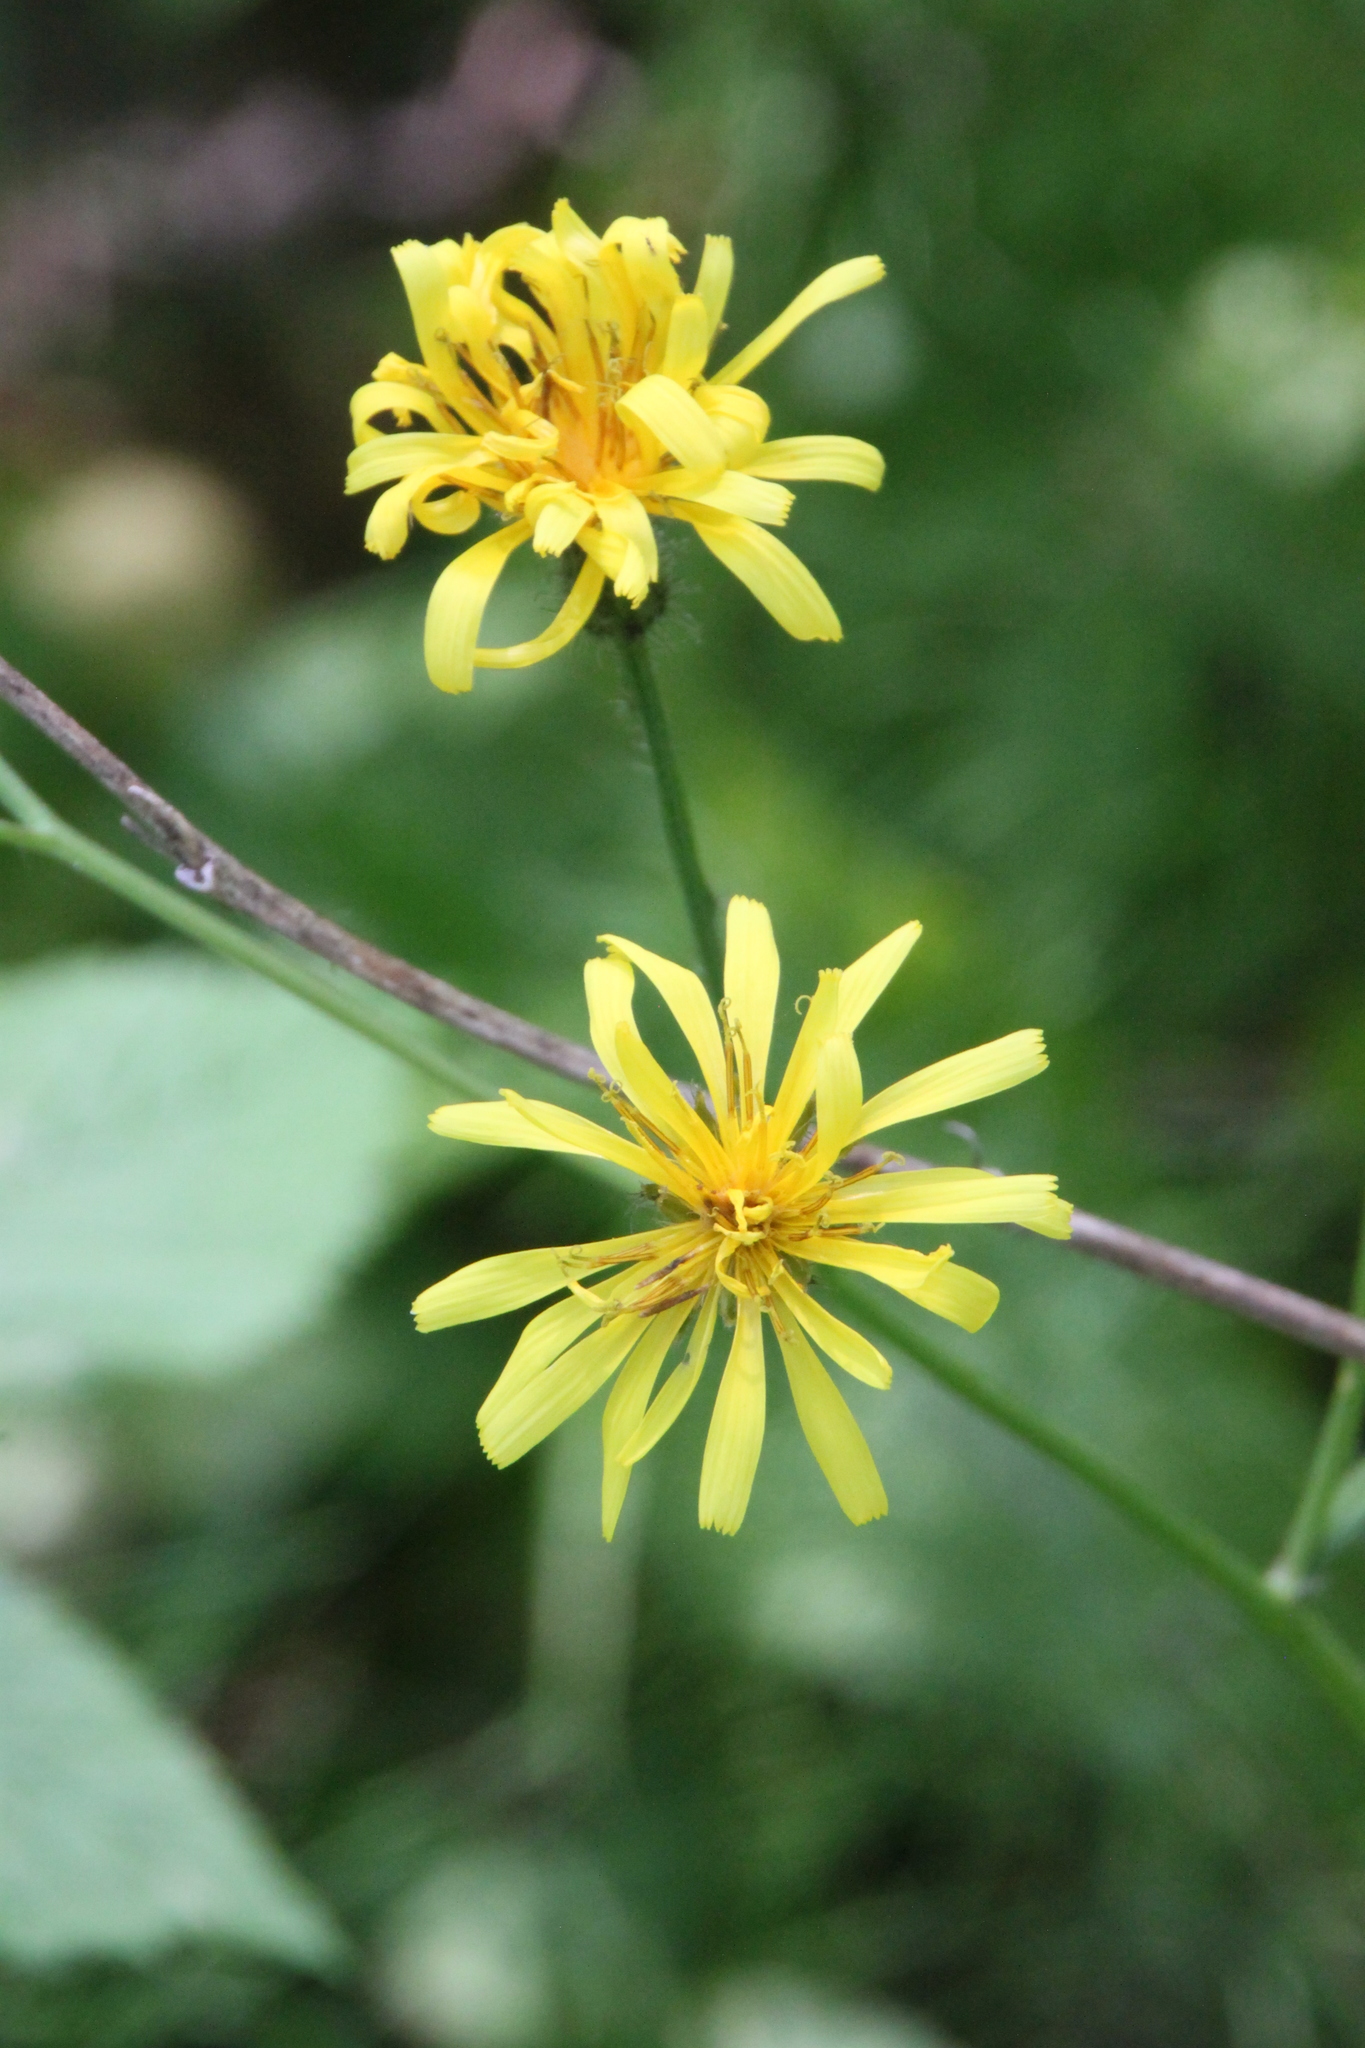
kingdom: Plantae
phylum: Tracheophyta
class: Magnoliopsida
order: Asterales
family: Asteraceae
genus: Crepis
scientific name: Crepis paludosa
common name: Marsh hawk's-beard
